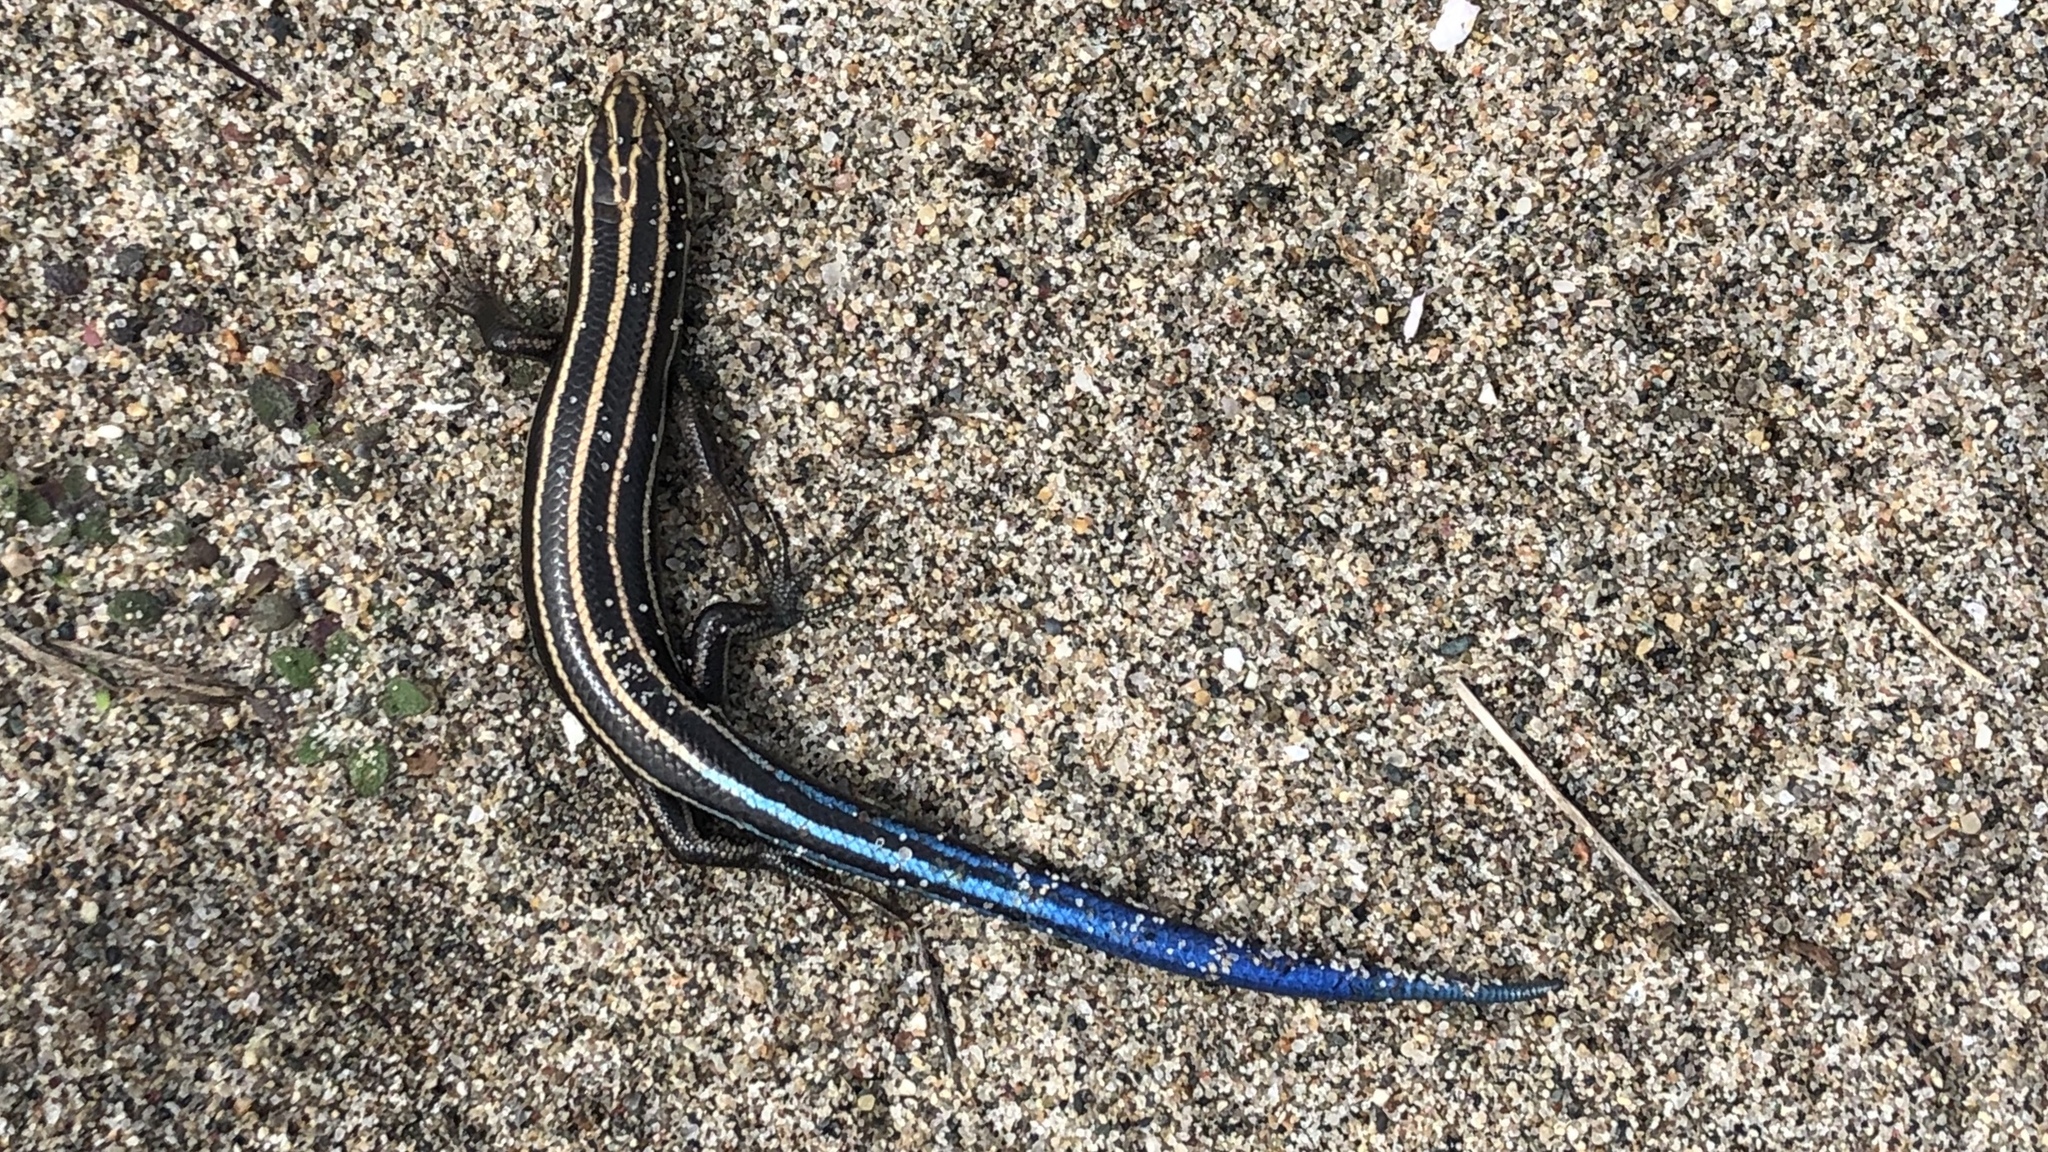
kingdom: Animalia
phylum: Chordata
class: Squamata
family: Scincidae
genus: Plestiodon
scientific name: Plestiodon fasciatus
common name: Five-lined skink
